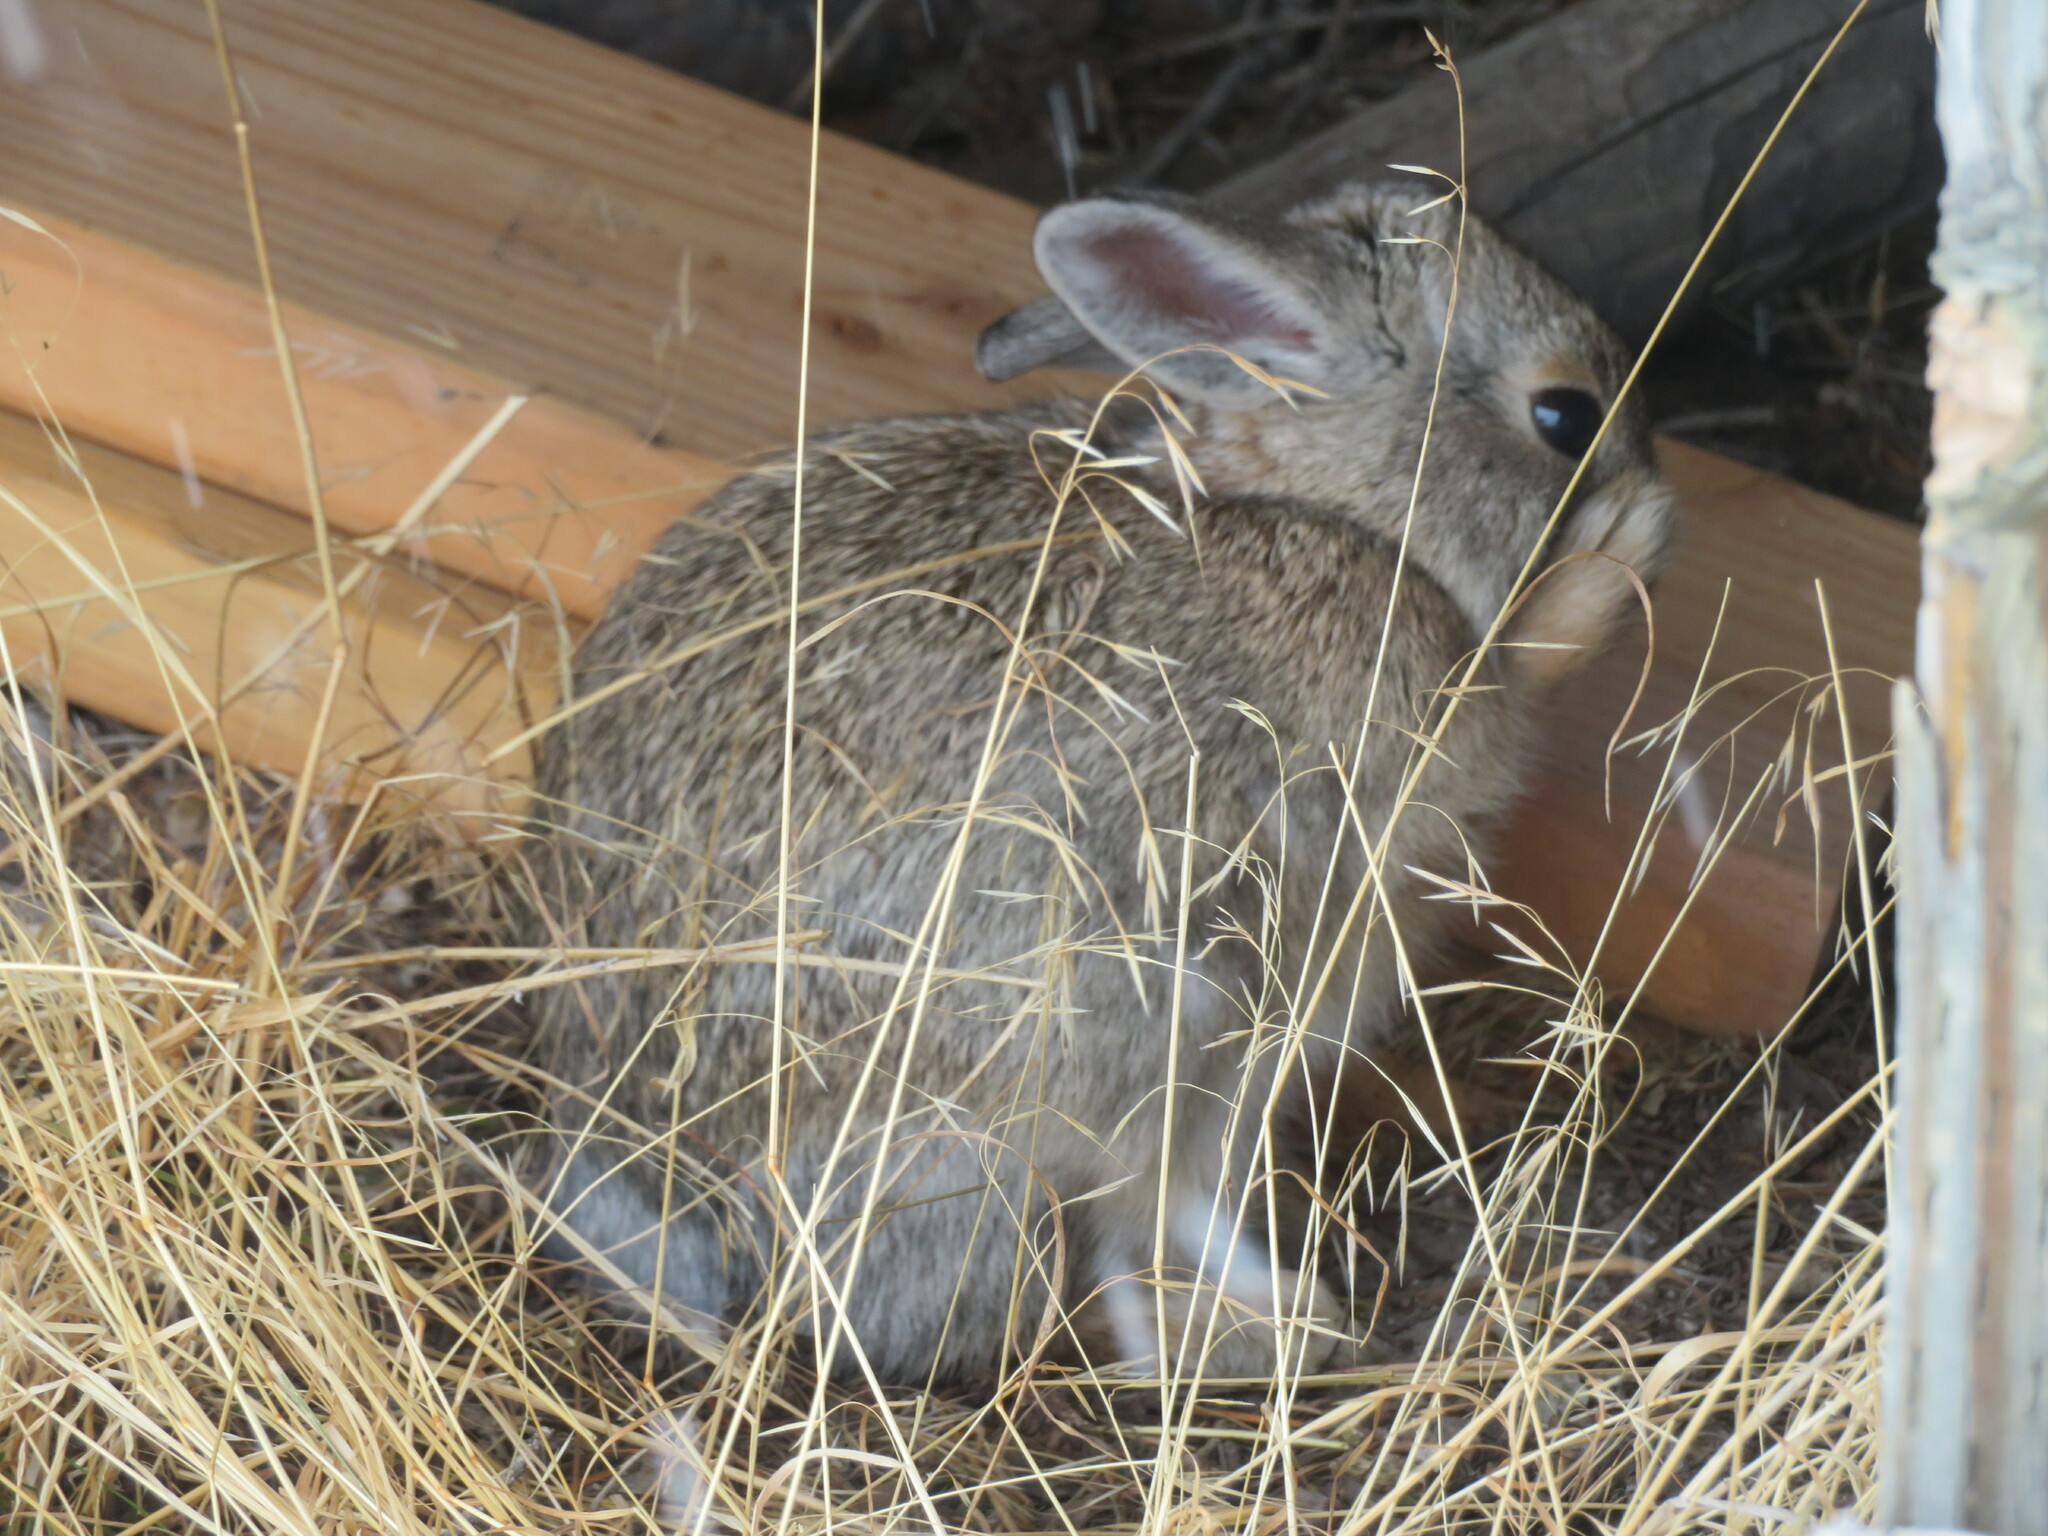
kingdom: Animalia
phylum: Chordata
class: Mammalia
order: Lagomorpha
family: Leporidae
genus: Sylvilagus
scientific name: Sylvilagus nuttallii
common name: Mountain cottontail
